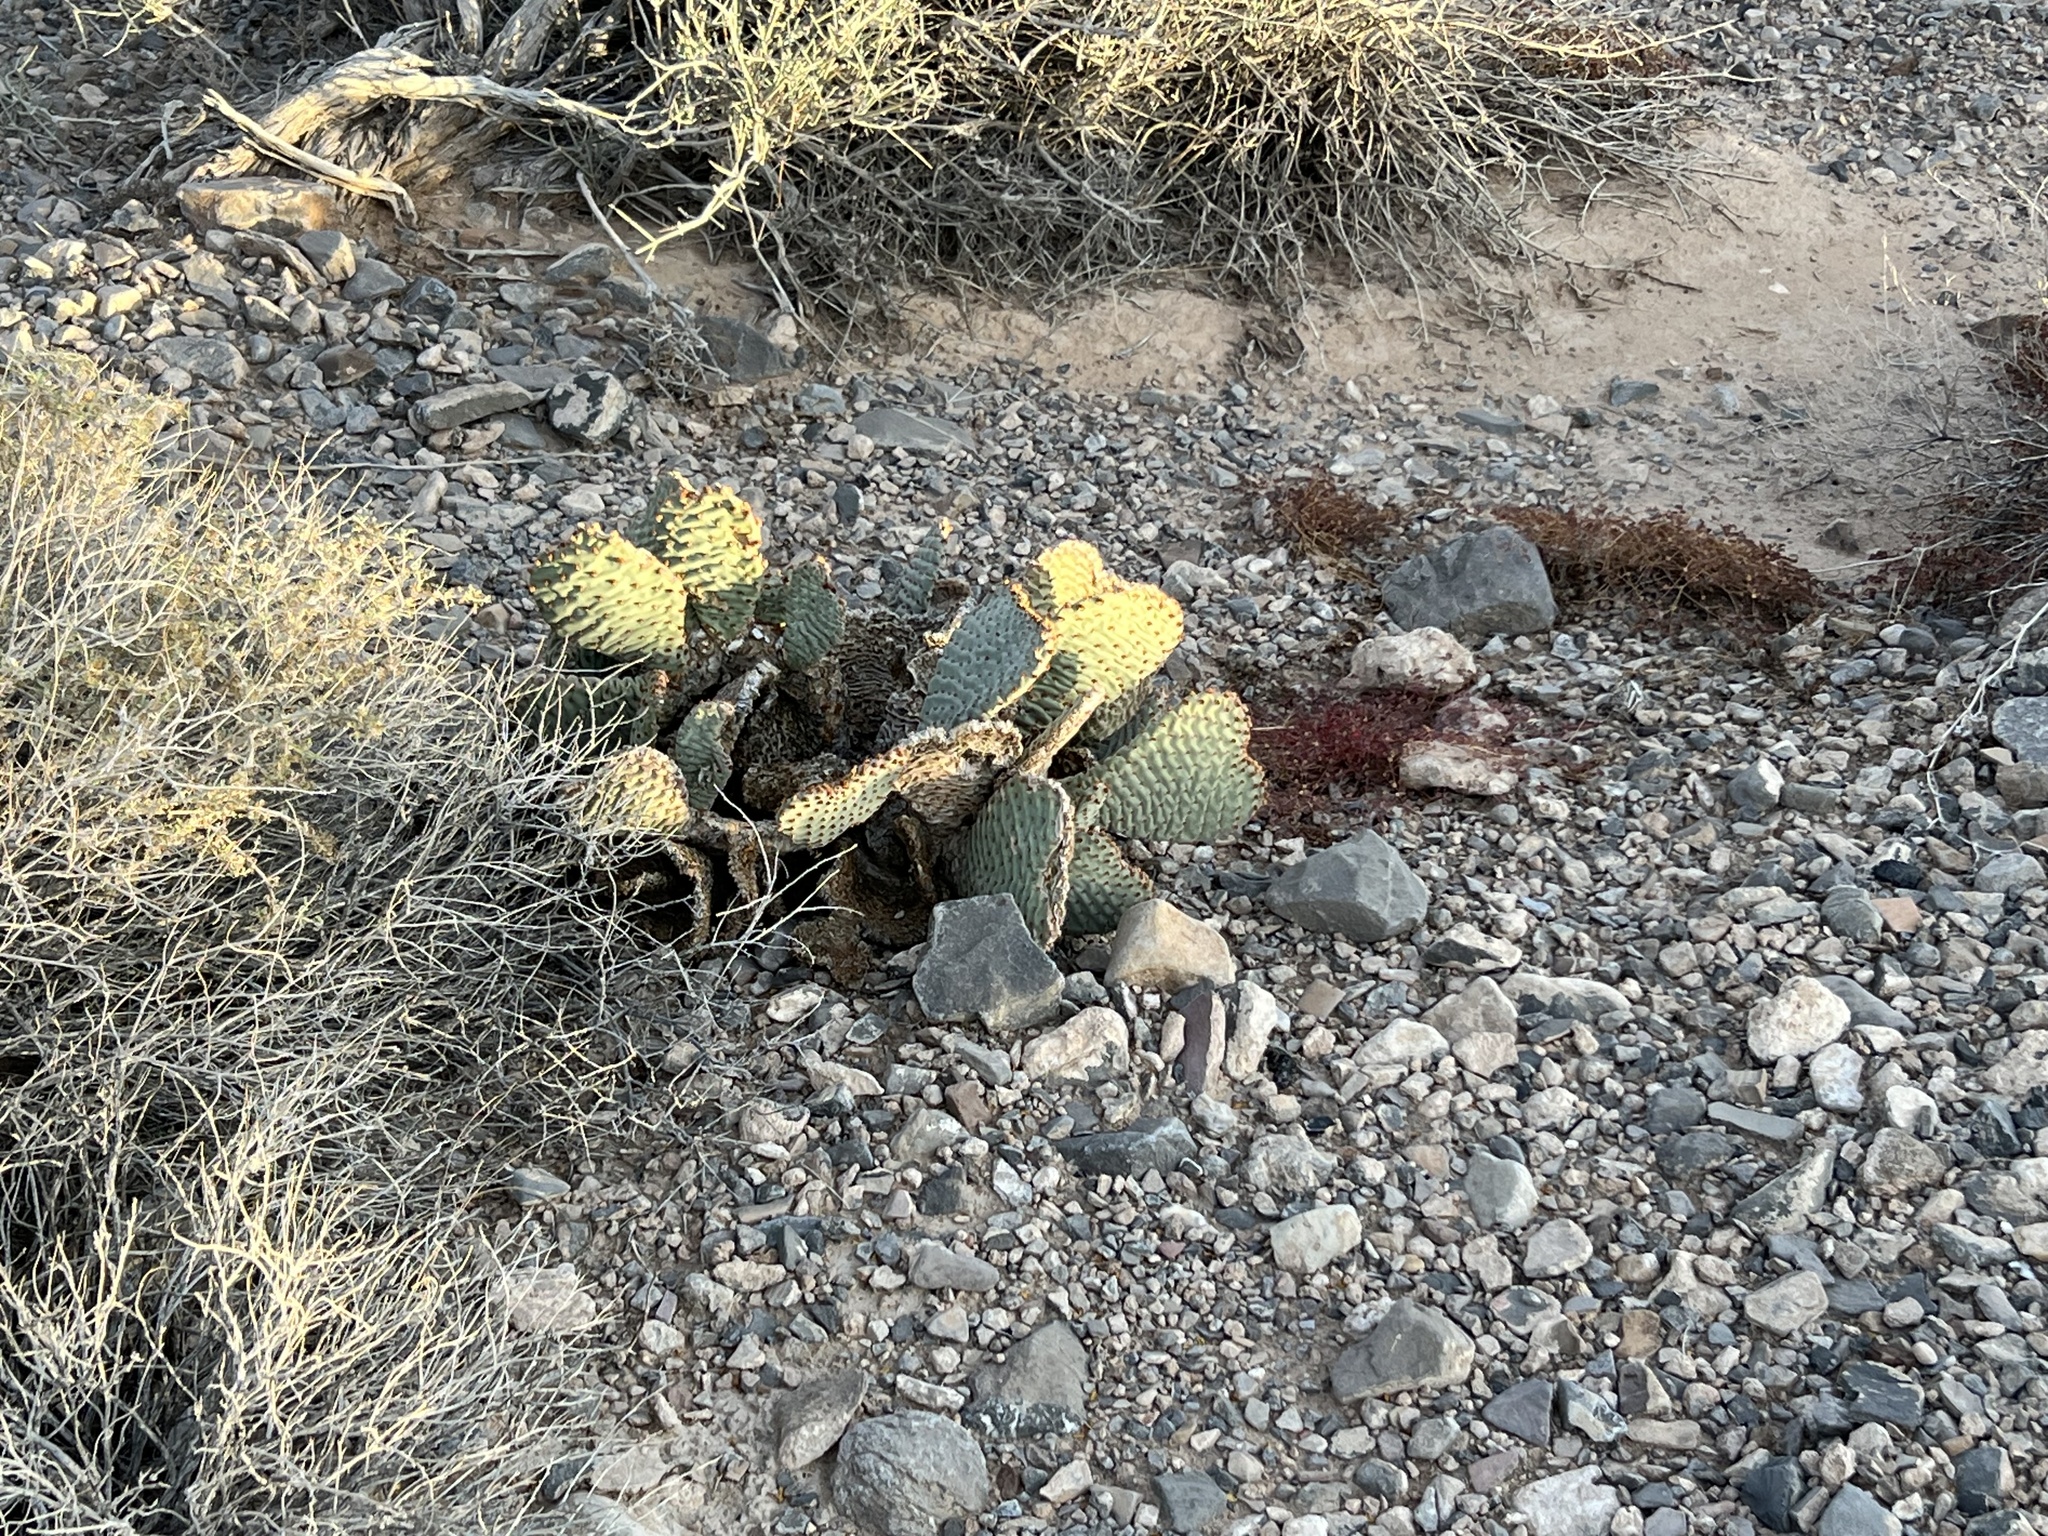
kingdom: Plantae
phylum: Tracheophyta
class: Magnoliopsida
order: Caryophyllales
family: Cactaceae
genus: Opuntia
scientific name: Opuntia basilaris
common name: Beavertail prickly-pear
